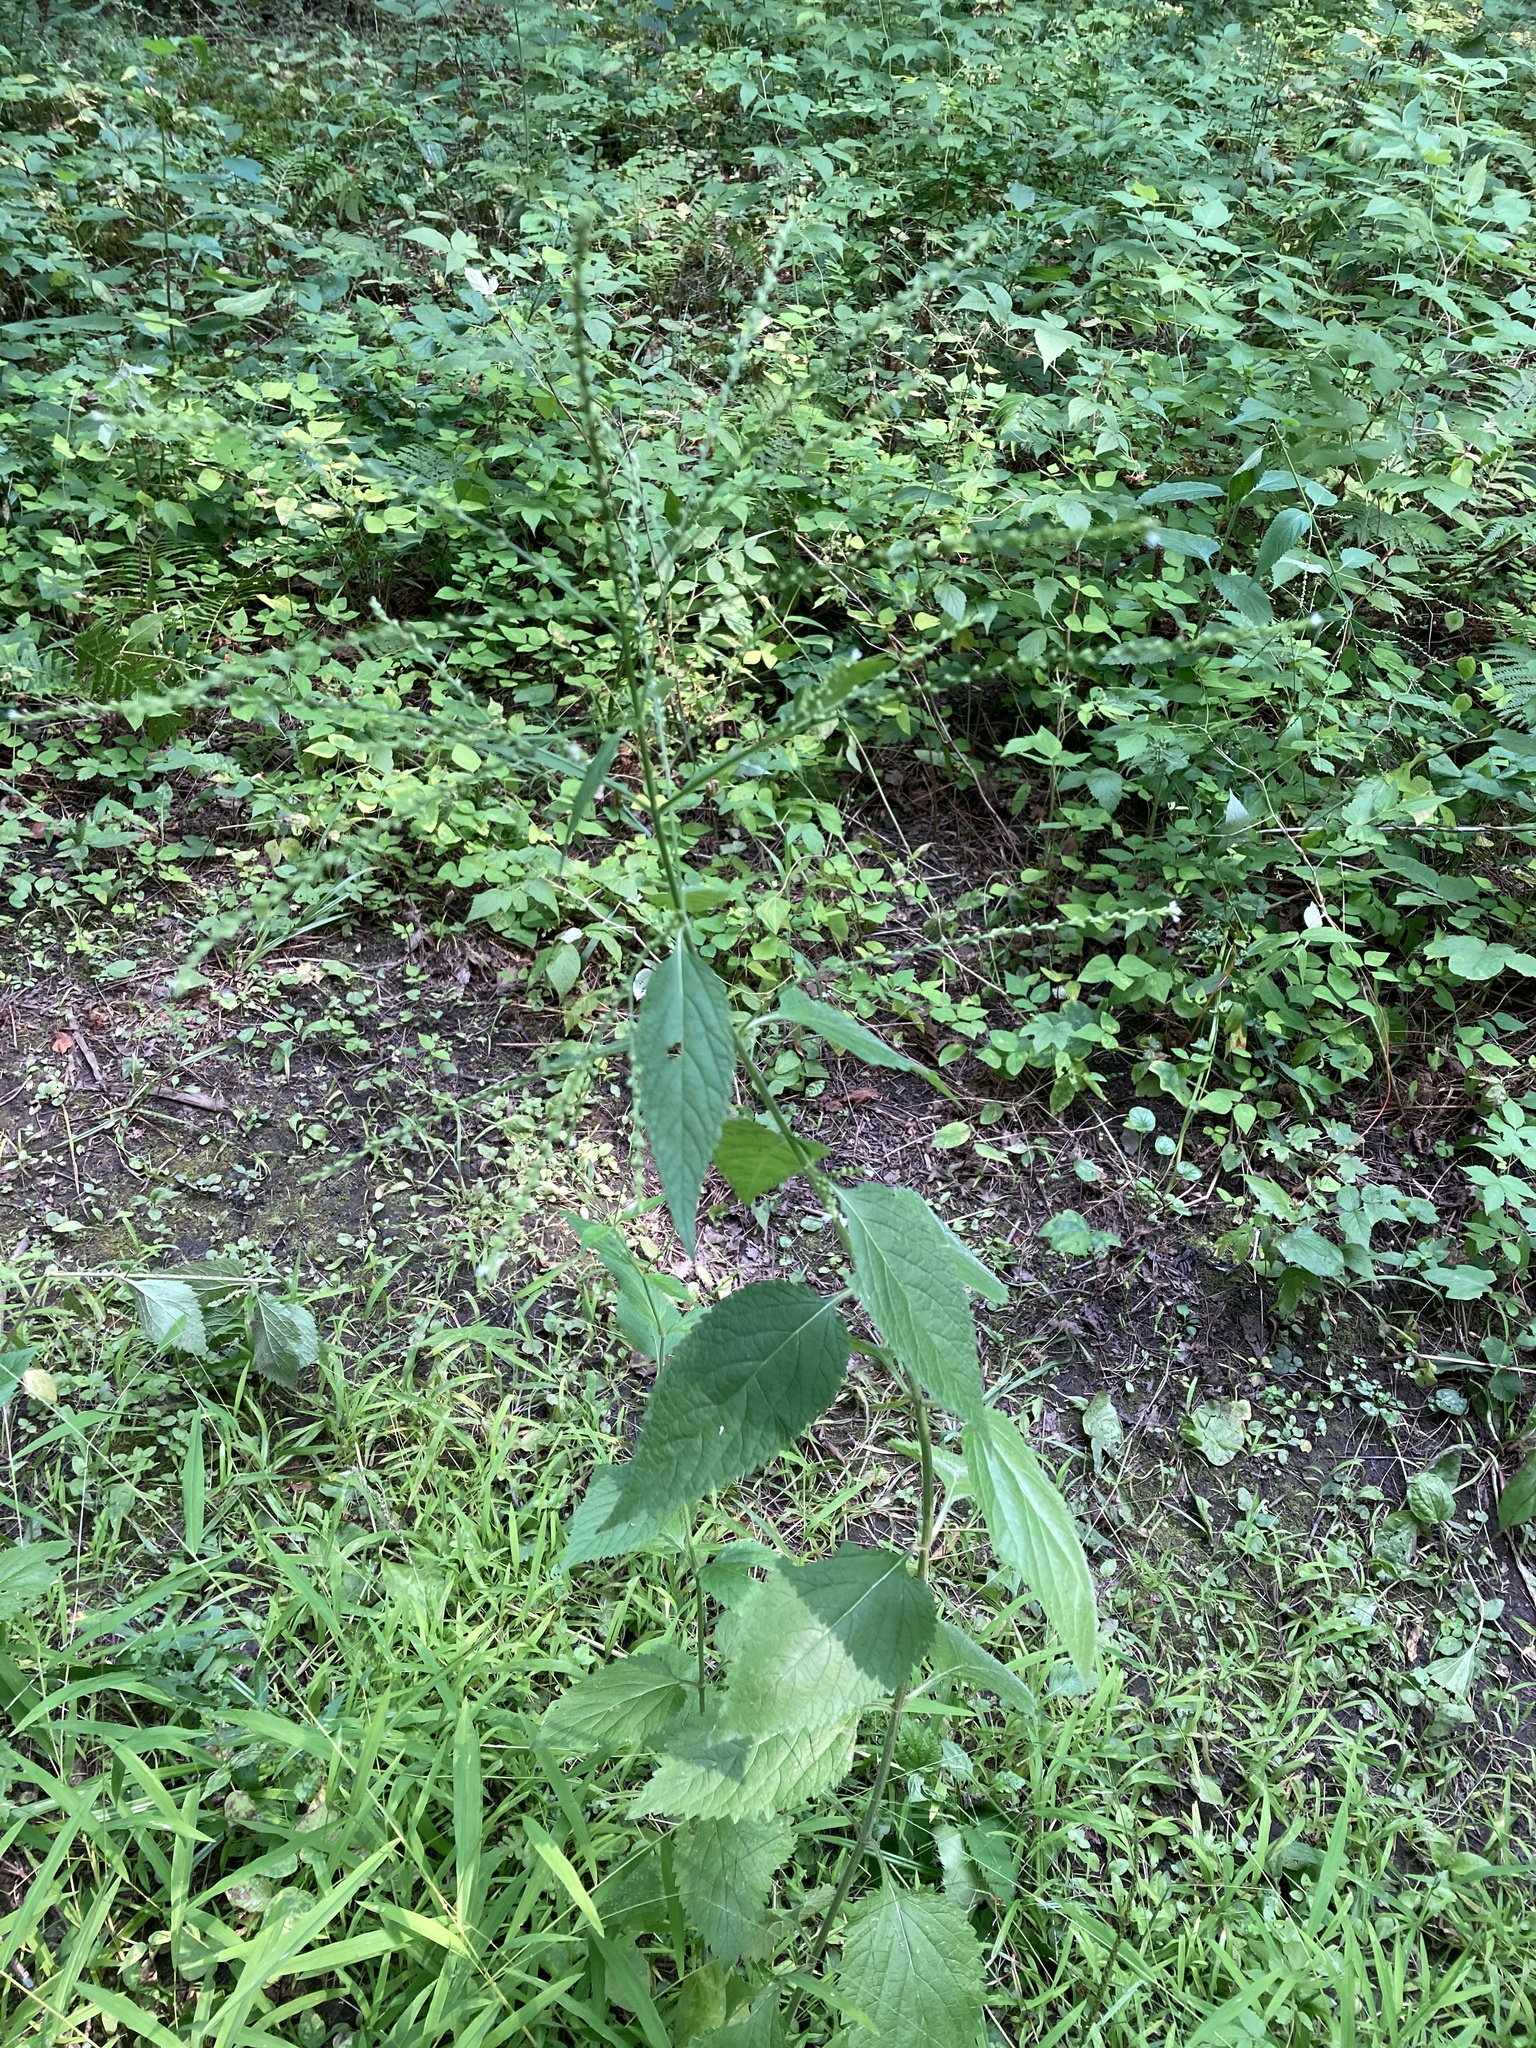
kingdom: Plantae
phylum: Tracheophyta
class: Magnoliopsida
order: Lamiales
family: Verbenaceae
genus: Verbena
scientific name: Verbena urticifolia
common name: Nettle-leaved vervain
